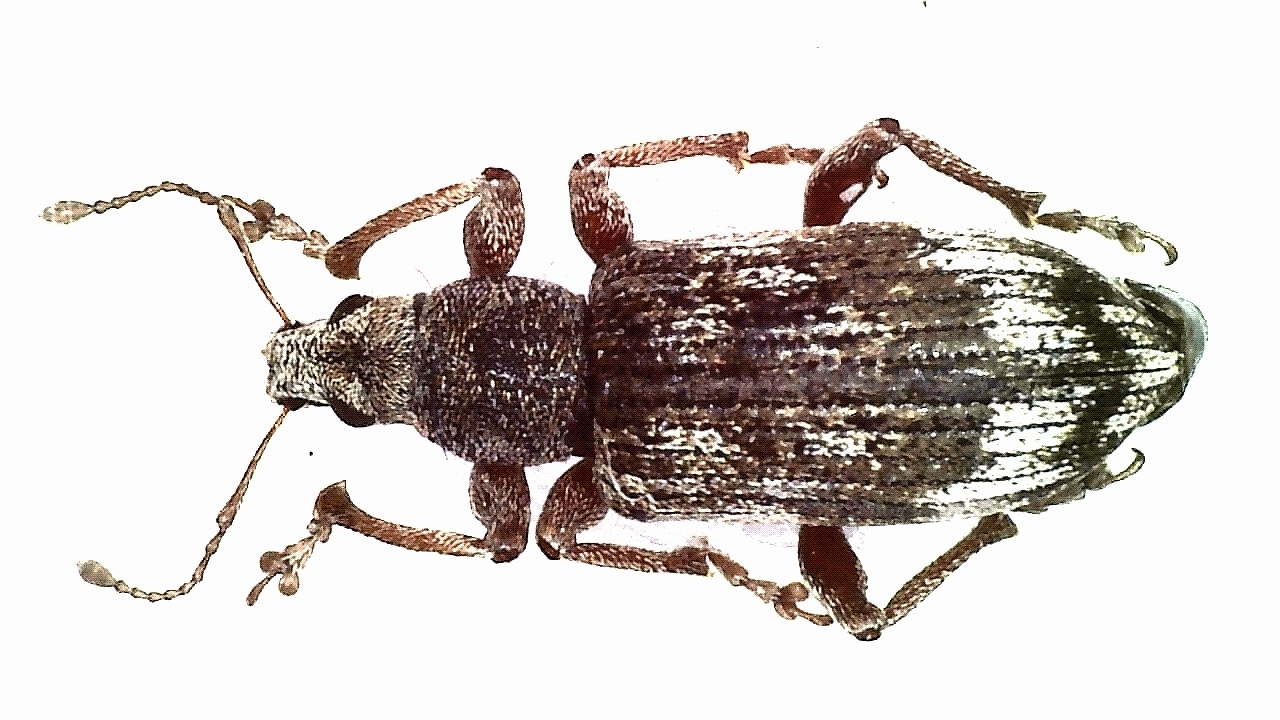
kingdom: Animalia
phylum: Arthropoda
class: Insecta
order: Coleoptera
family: Curculionidae
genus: Polydrusus
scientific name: Polydrusus tereticollis
